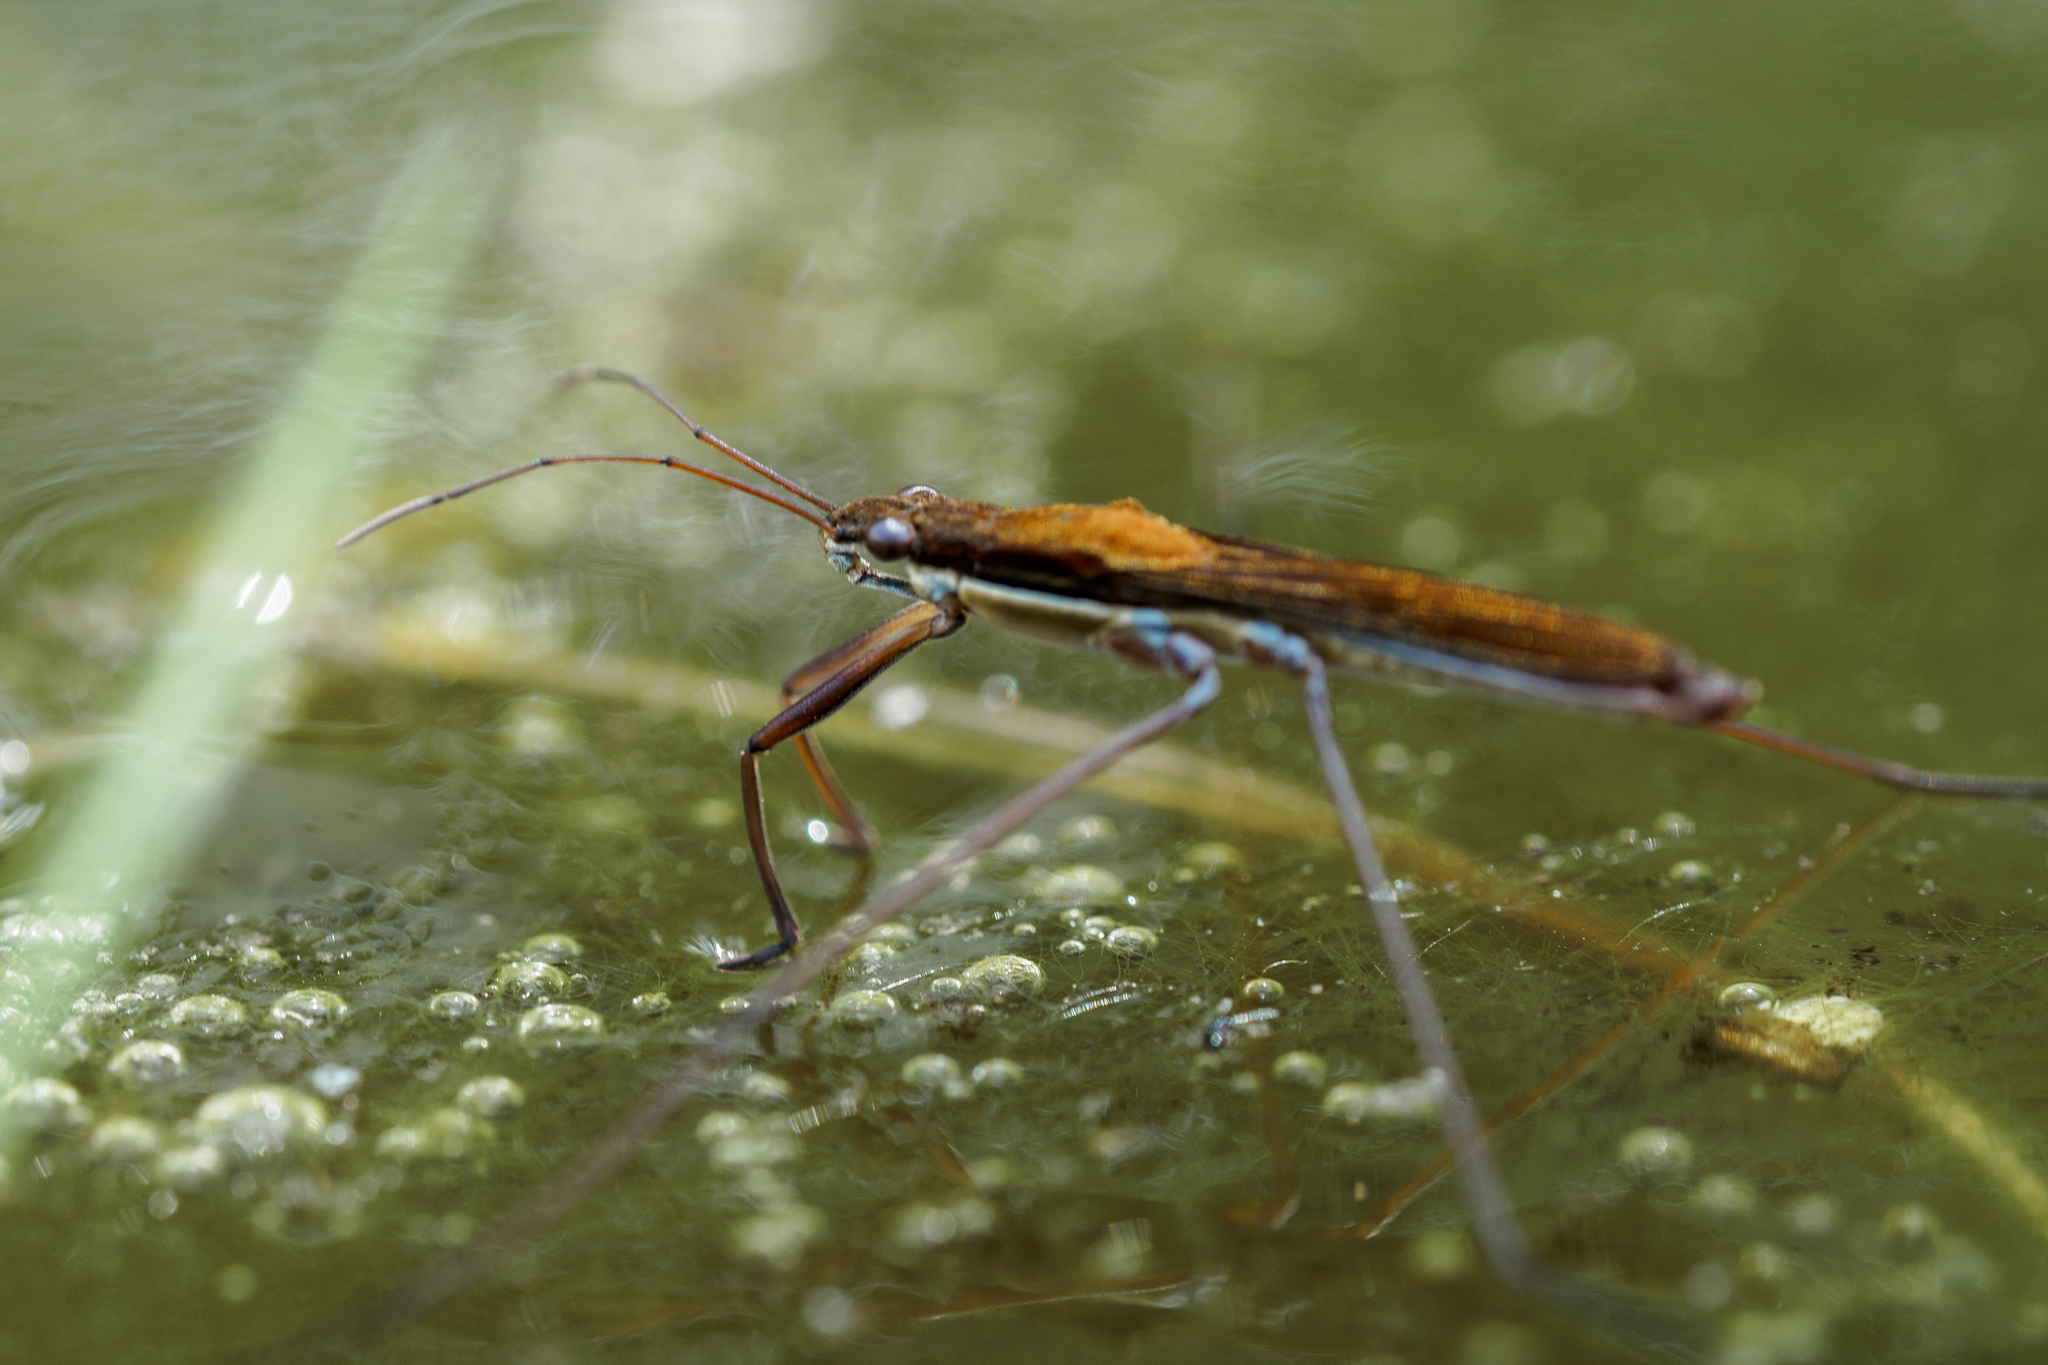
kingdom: Animalia
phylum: Arthropoda
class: Insecta
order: Hemiptera
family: Gerridae
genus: Limnoporus
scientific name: Limnoporus rufoscutellatus
